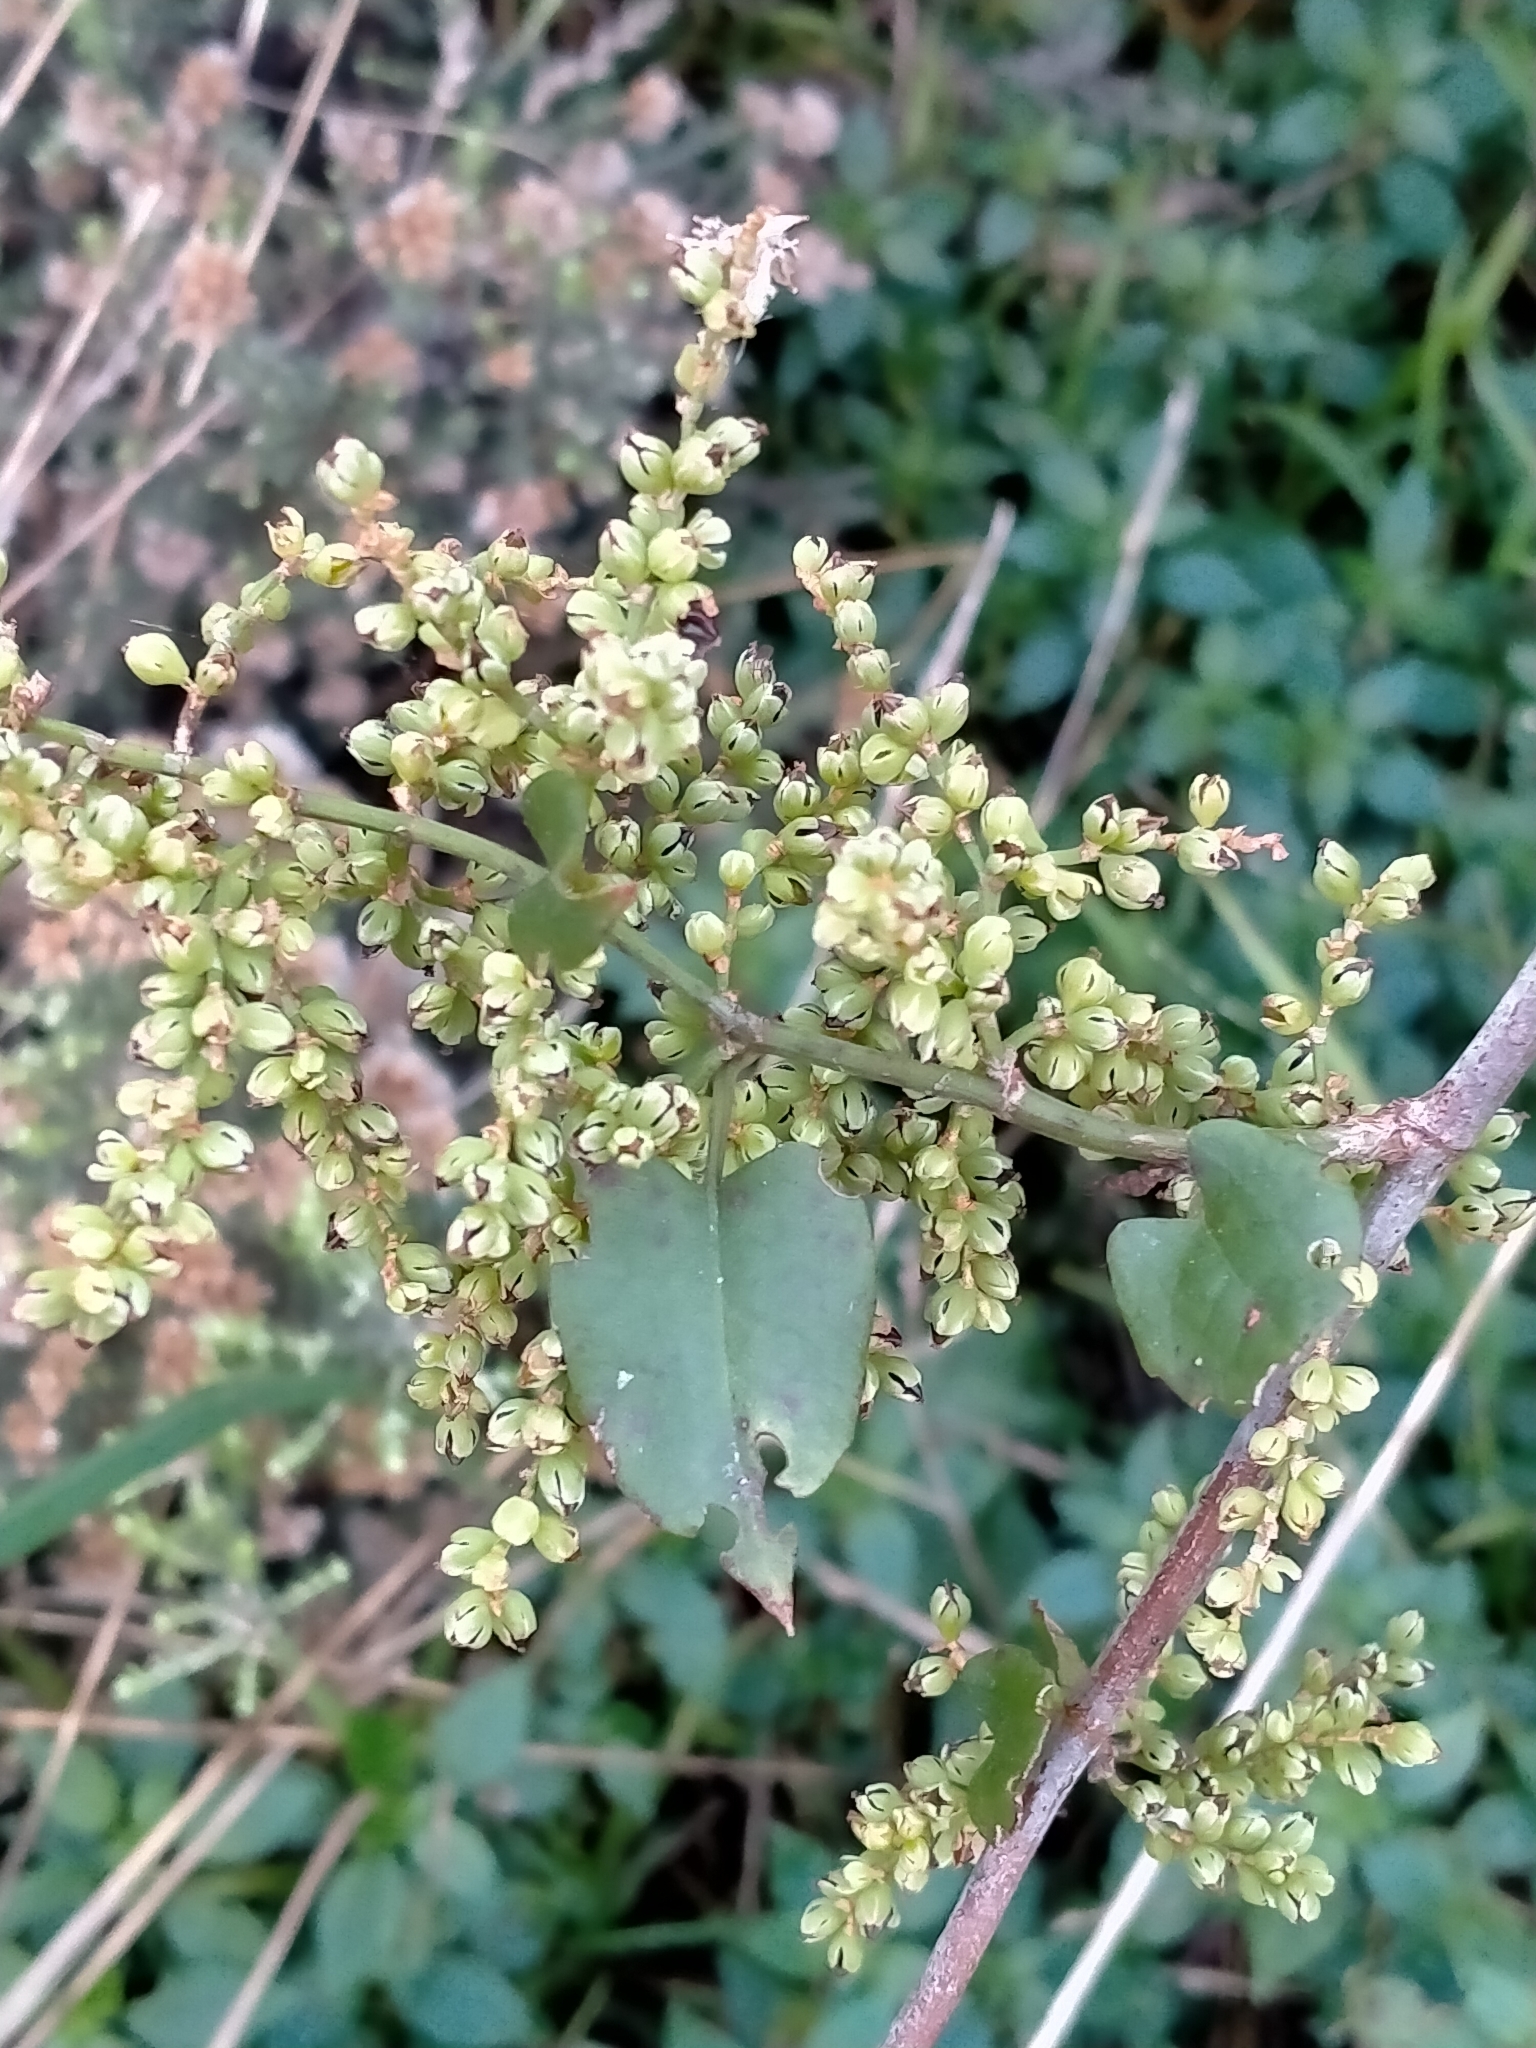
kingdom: Plantae
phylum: Tracheophyta
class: Magnoliopsida
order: Caryophyllales
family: Polygonaceae
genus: Muehlenbeckia
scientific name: Muehlenbeckia australis
